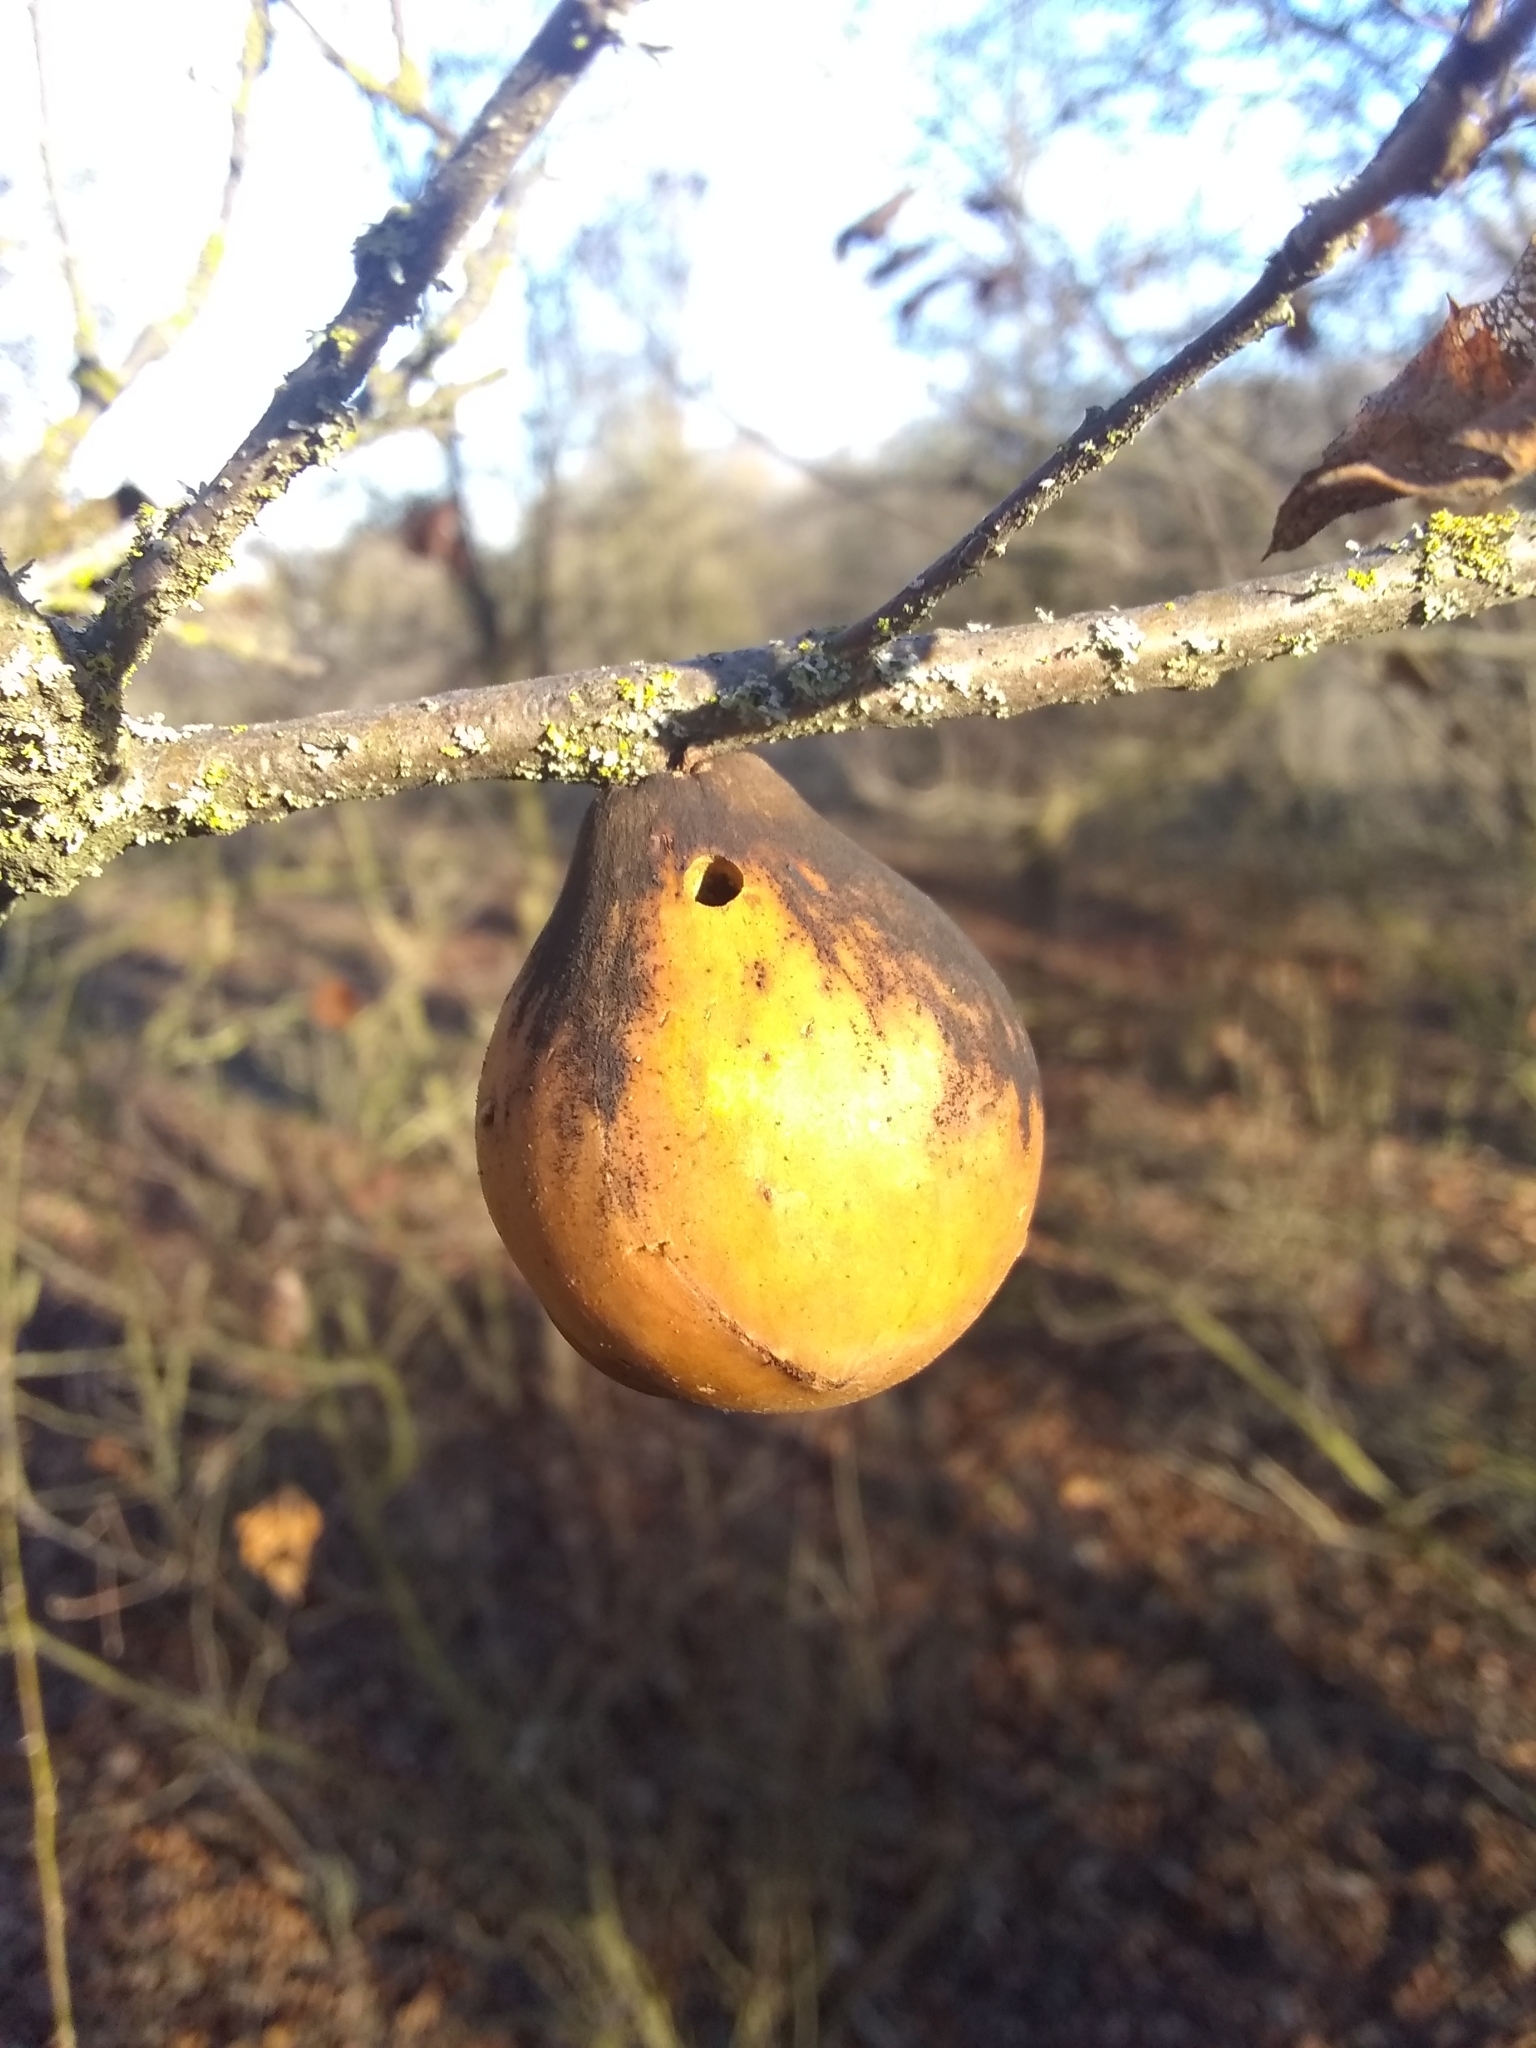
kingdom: Animalia
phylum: Arthropoda
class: Insecta
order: Hymenoptera
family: Cynipidae
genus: Andricus
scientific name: Andricus quercuscalifornicus
